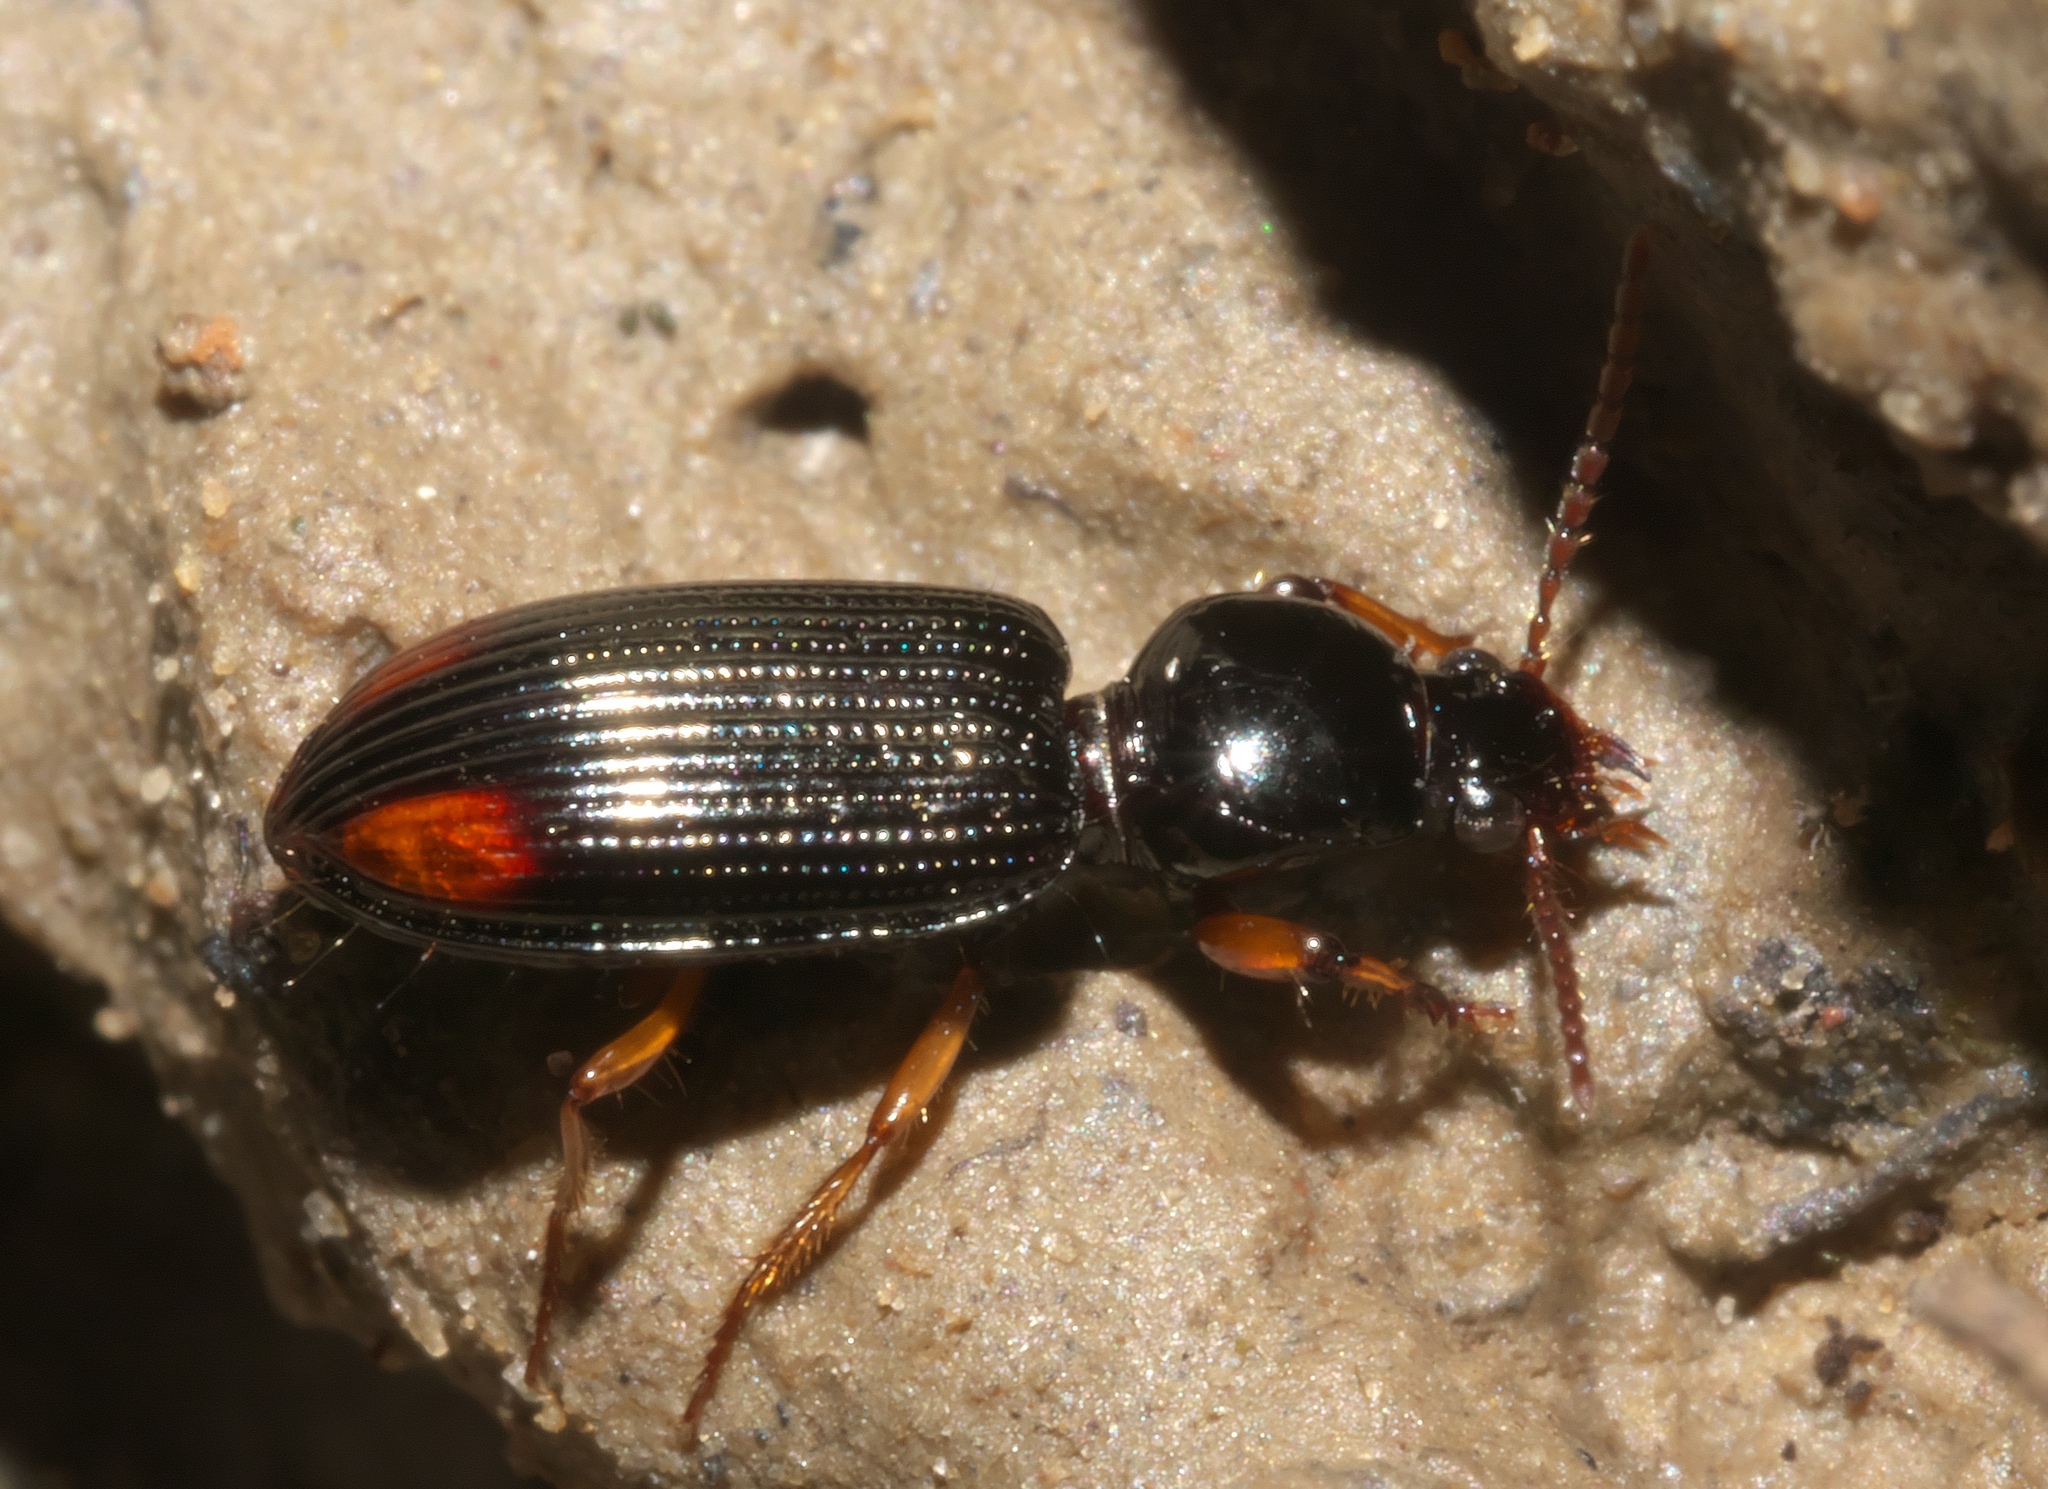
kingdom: Animalia
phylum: Arthropoda
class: Insecta
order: Coleoptera
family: Carabidae
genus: Aspidoglossa
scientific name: Aspidoglossa subangulata
